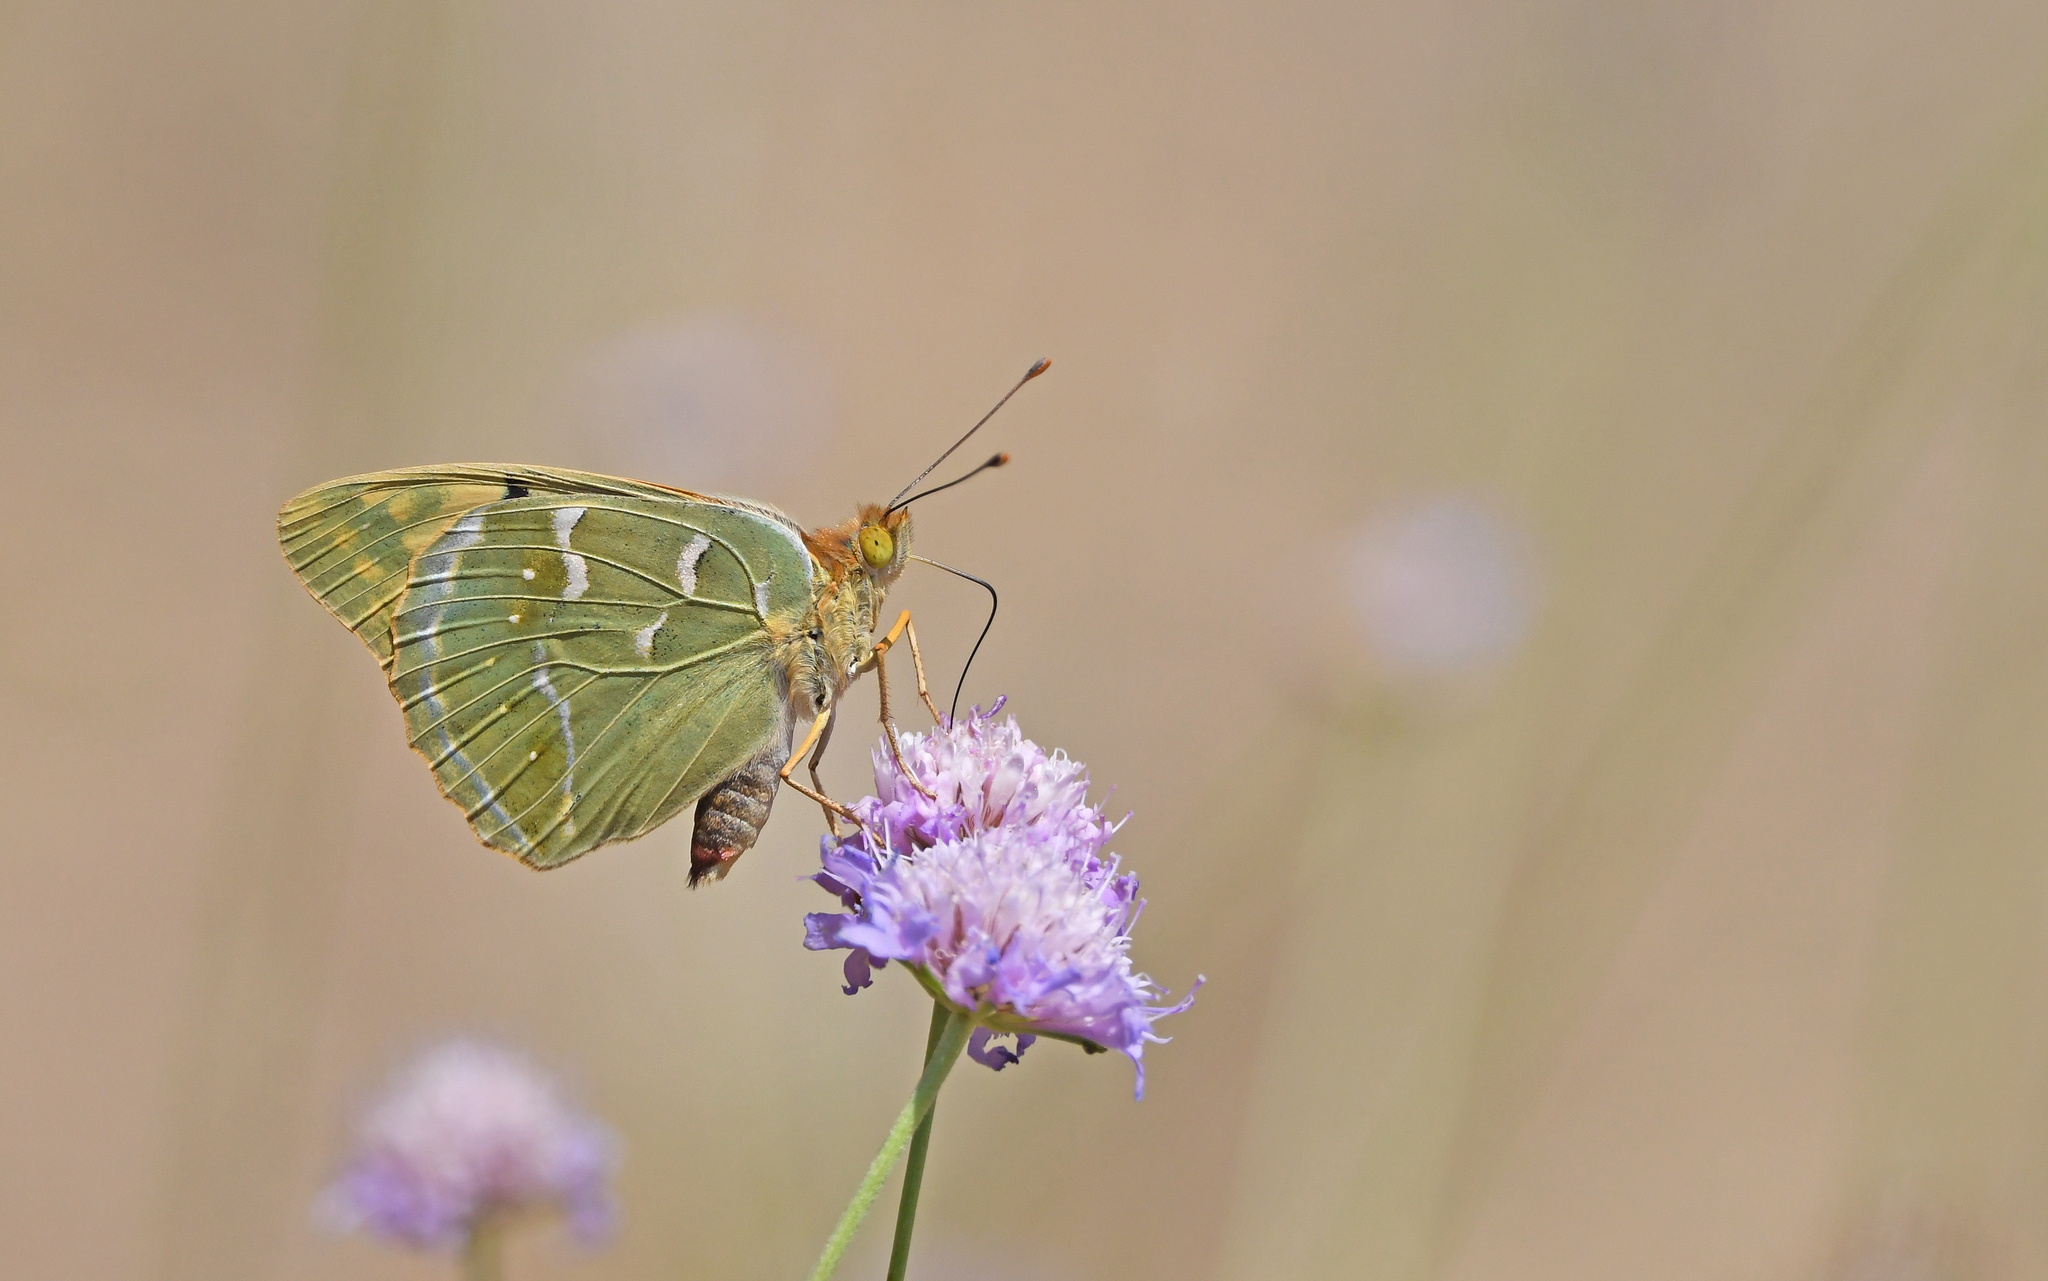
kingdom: Animalia
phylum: Arthropoda
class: Insecta
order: Lepidoptera
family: Nymphalidae
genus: Damora
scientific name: Damora pandora
